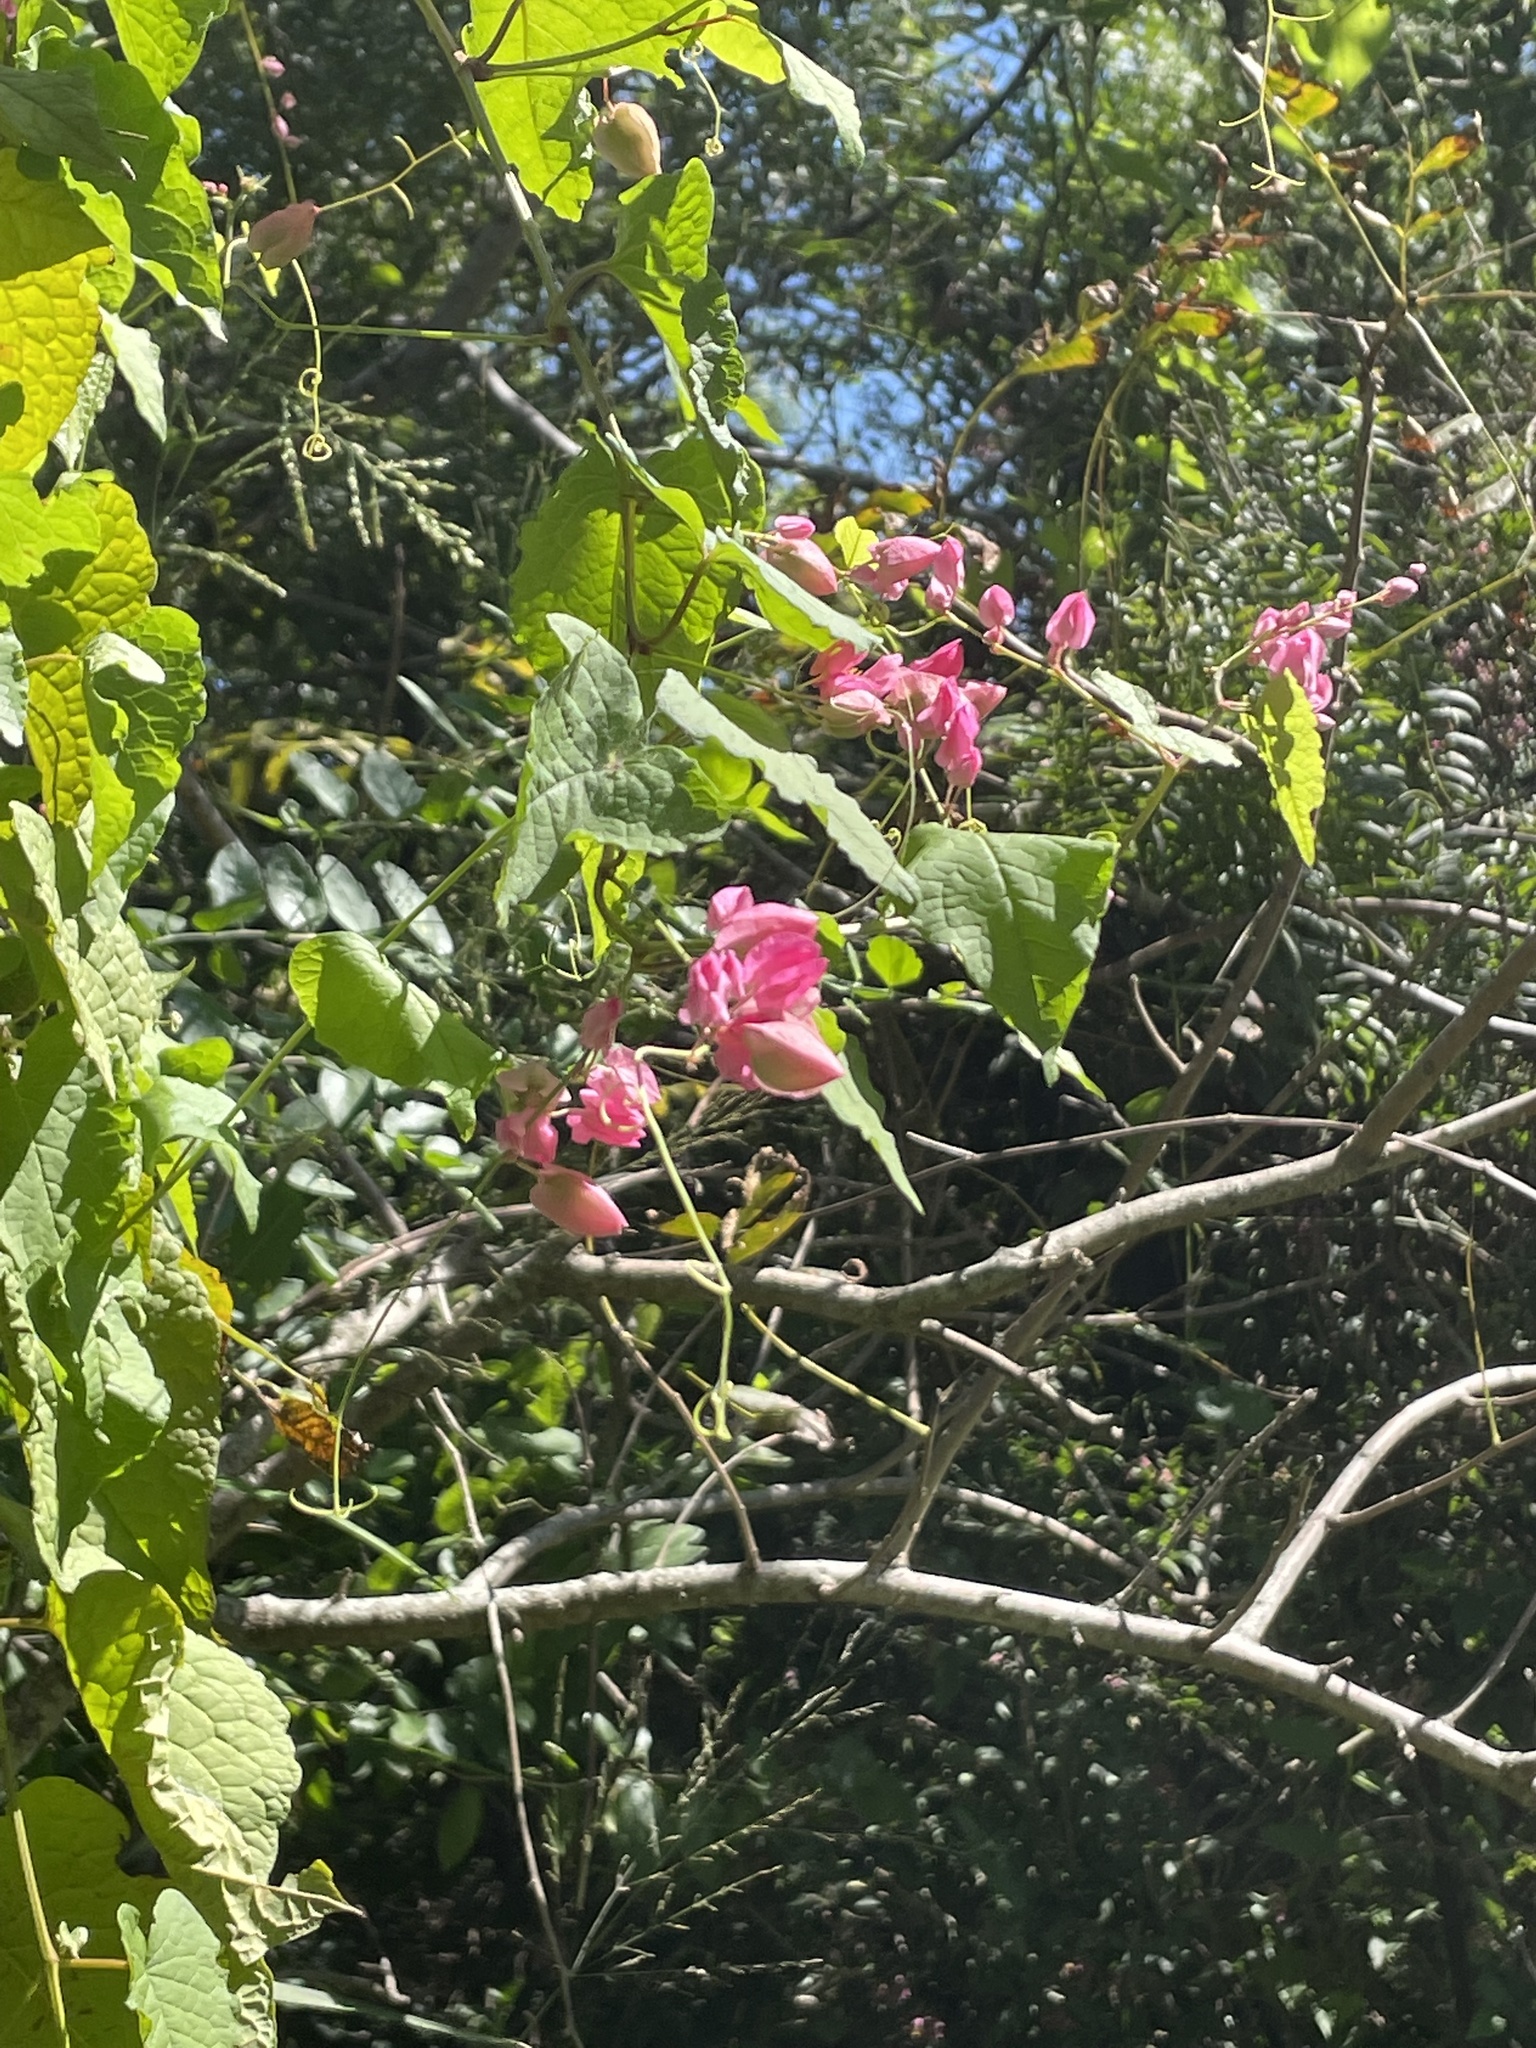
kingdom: Plantae
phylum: Tracheophyta
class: Magnoliopsida
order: Caryophyllales
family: Polygonaceae
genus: Antigonon
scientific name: Antigonon leptopus
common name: Coral vine
